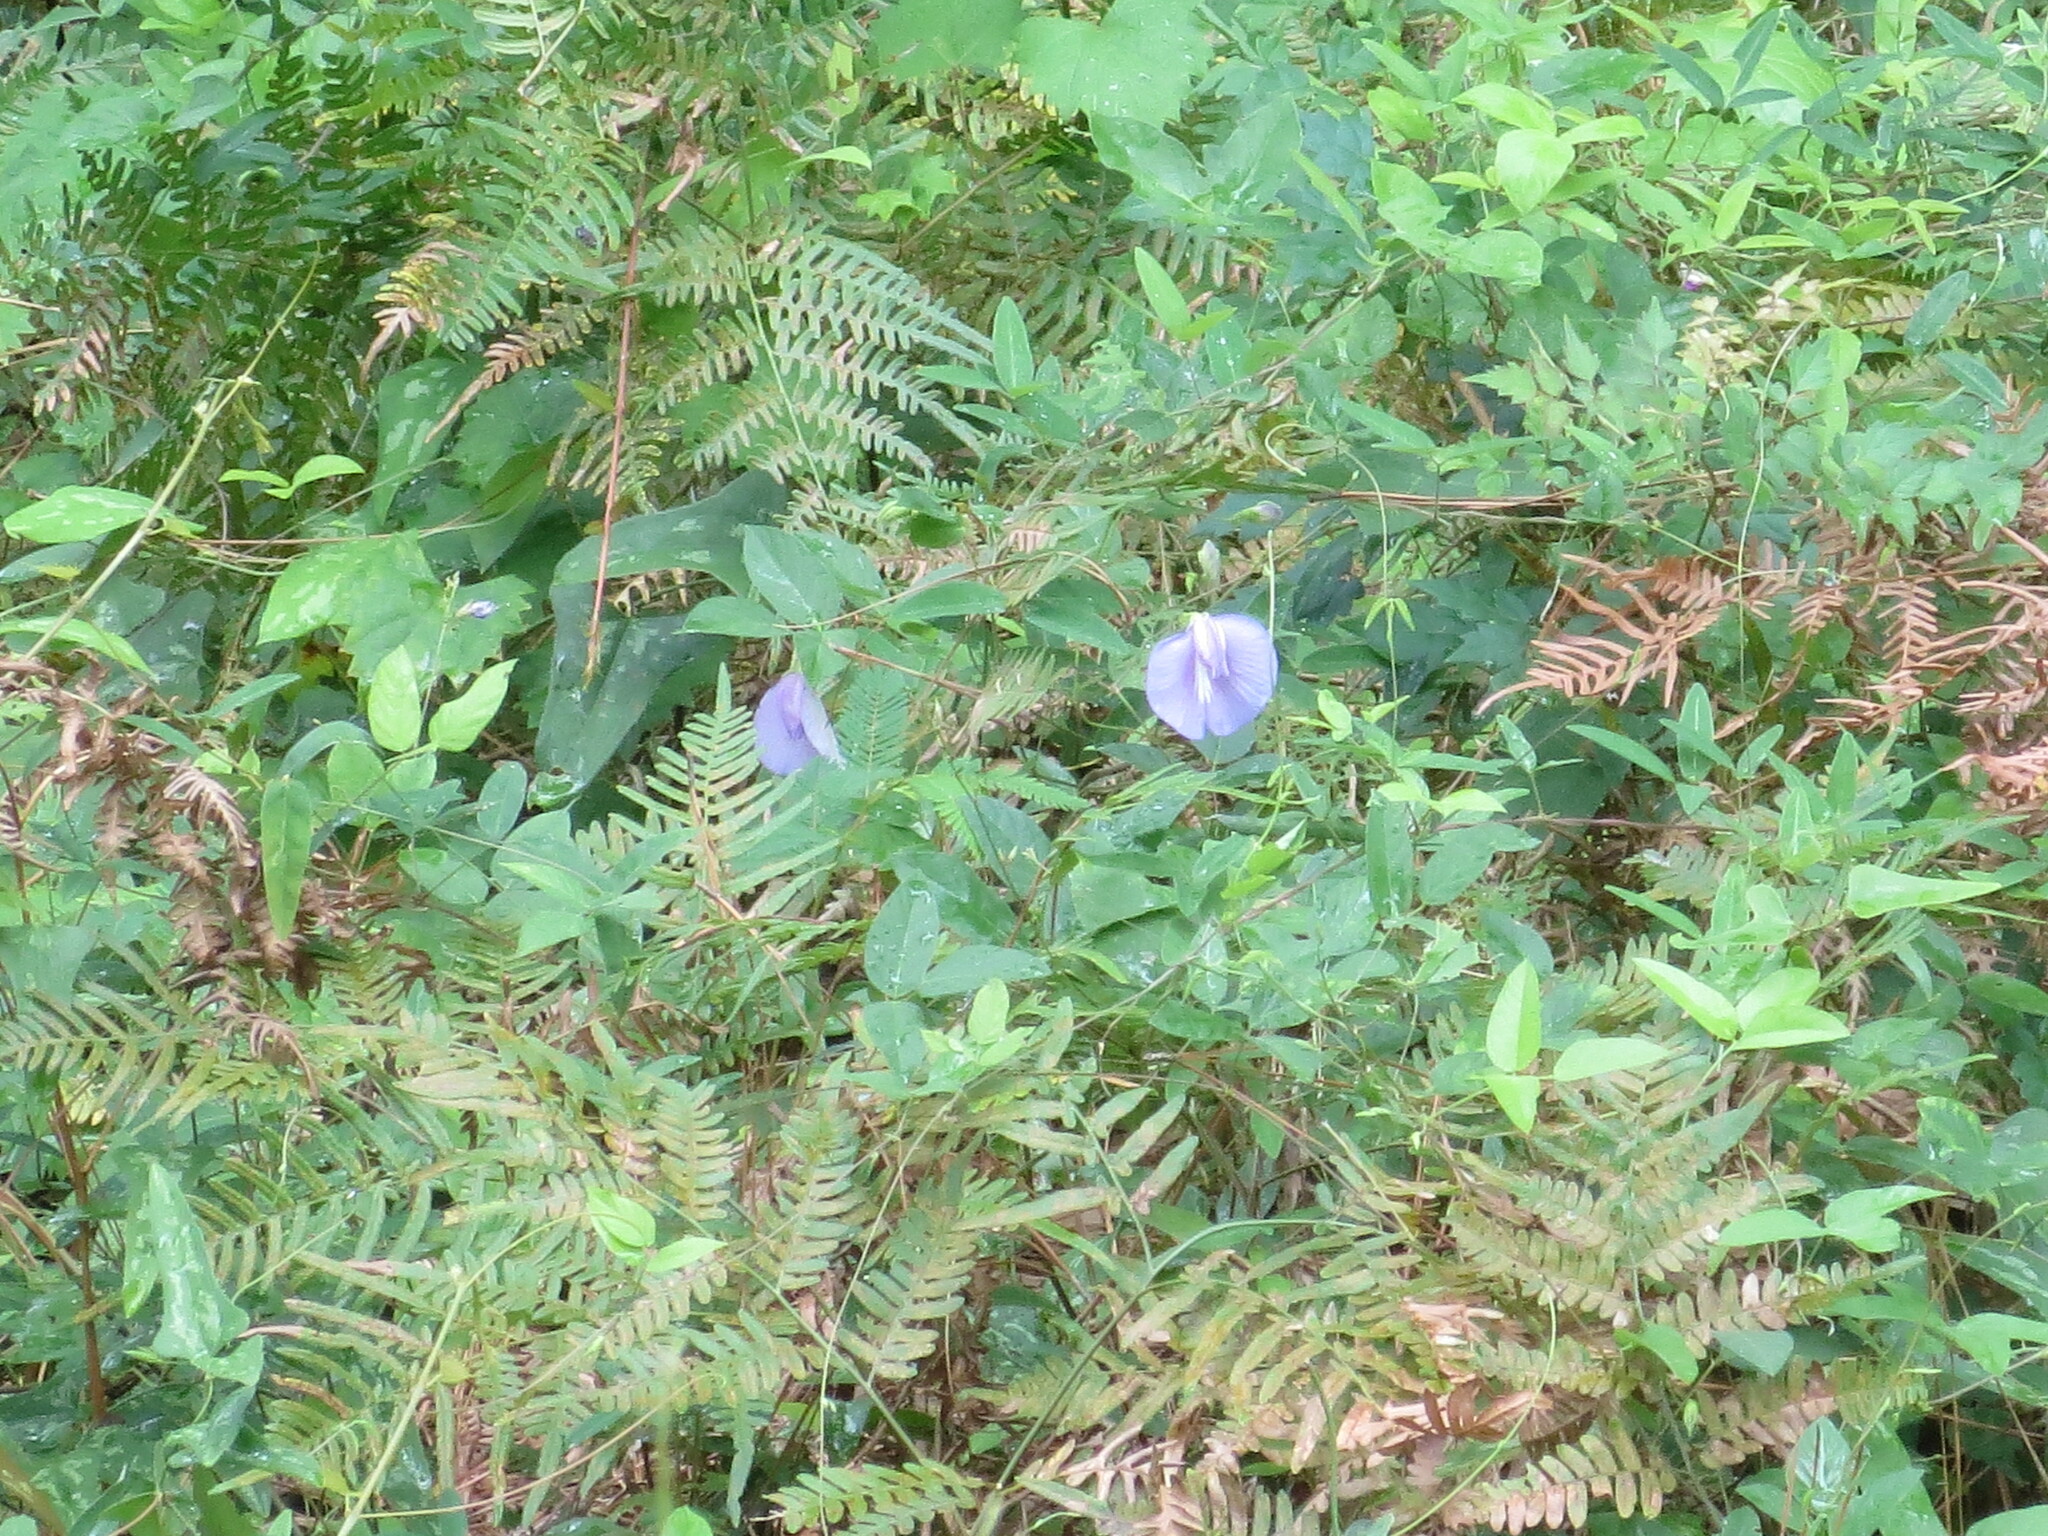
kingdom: Plantae
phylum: Tracheophyta
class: Magnoliopsida
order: Fabales
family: Fabaceae
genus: Centrosema
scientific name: Centrosema virginianum
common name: Butterfly-pea
